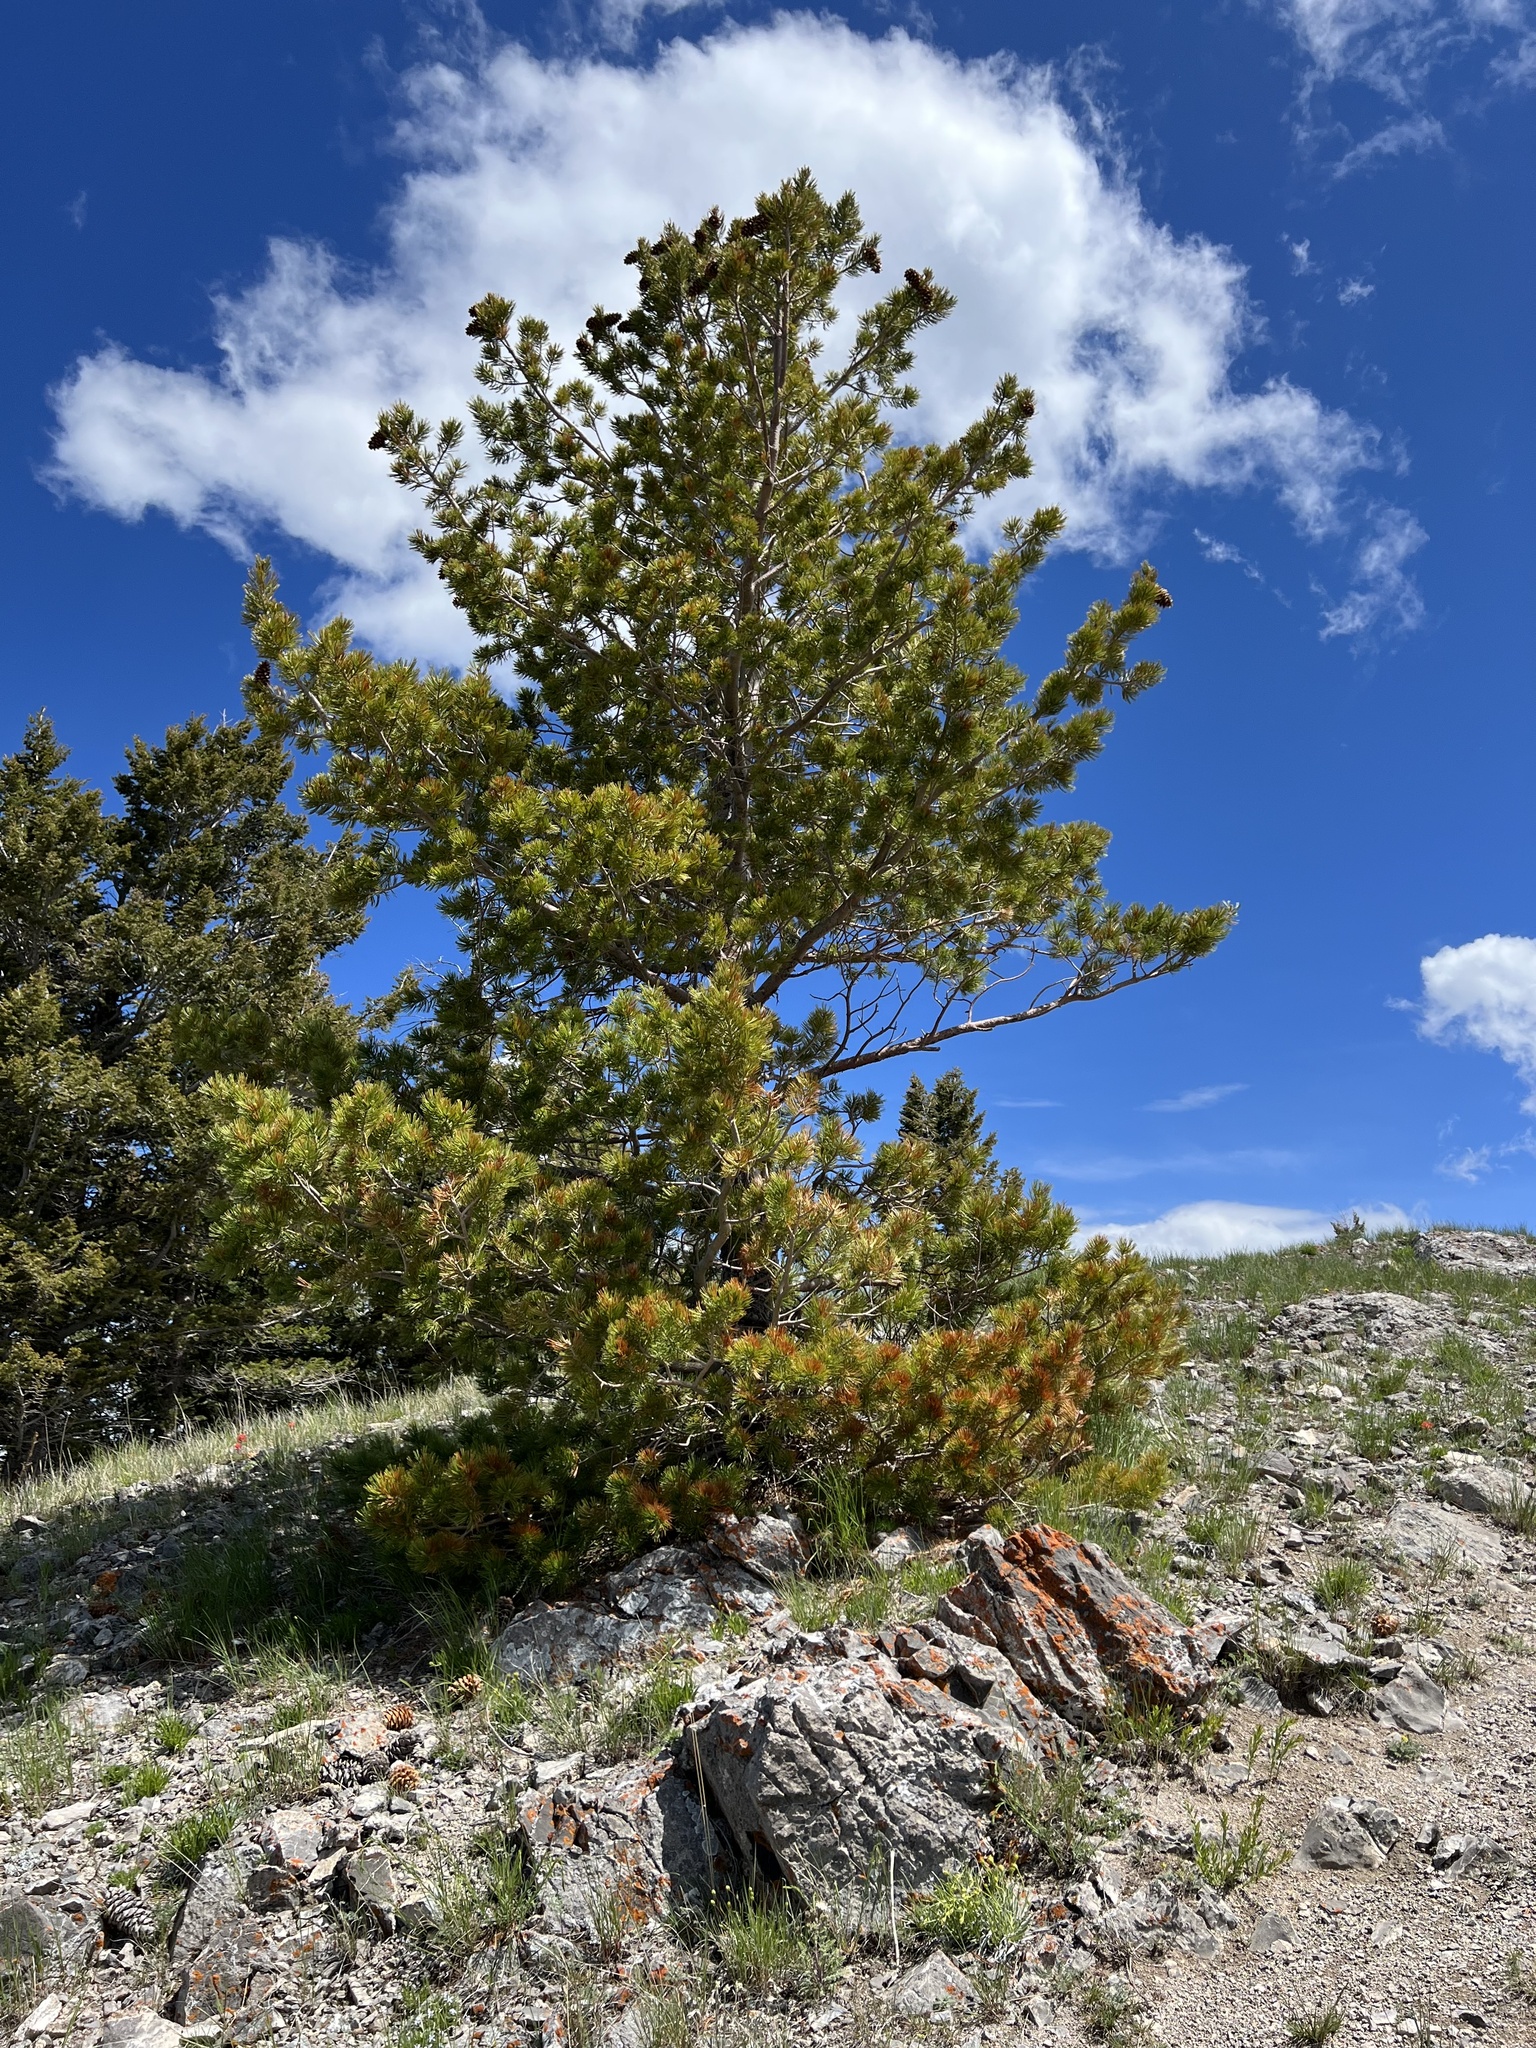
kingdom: Plantae
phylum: Tracheophyta
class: Pinopsida
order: Pinales
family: Pinaceae
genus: Pinus
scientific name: Pinus flexilis
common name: Limber pine
